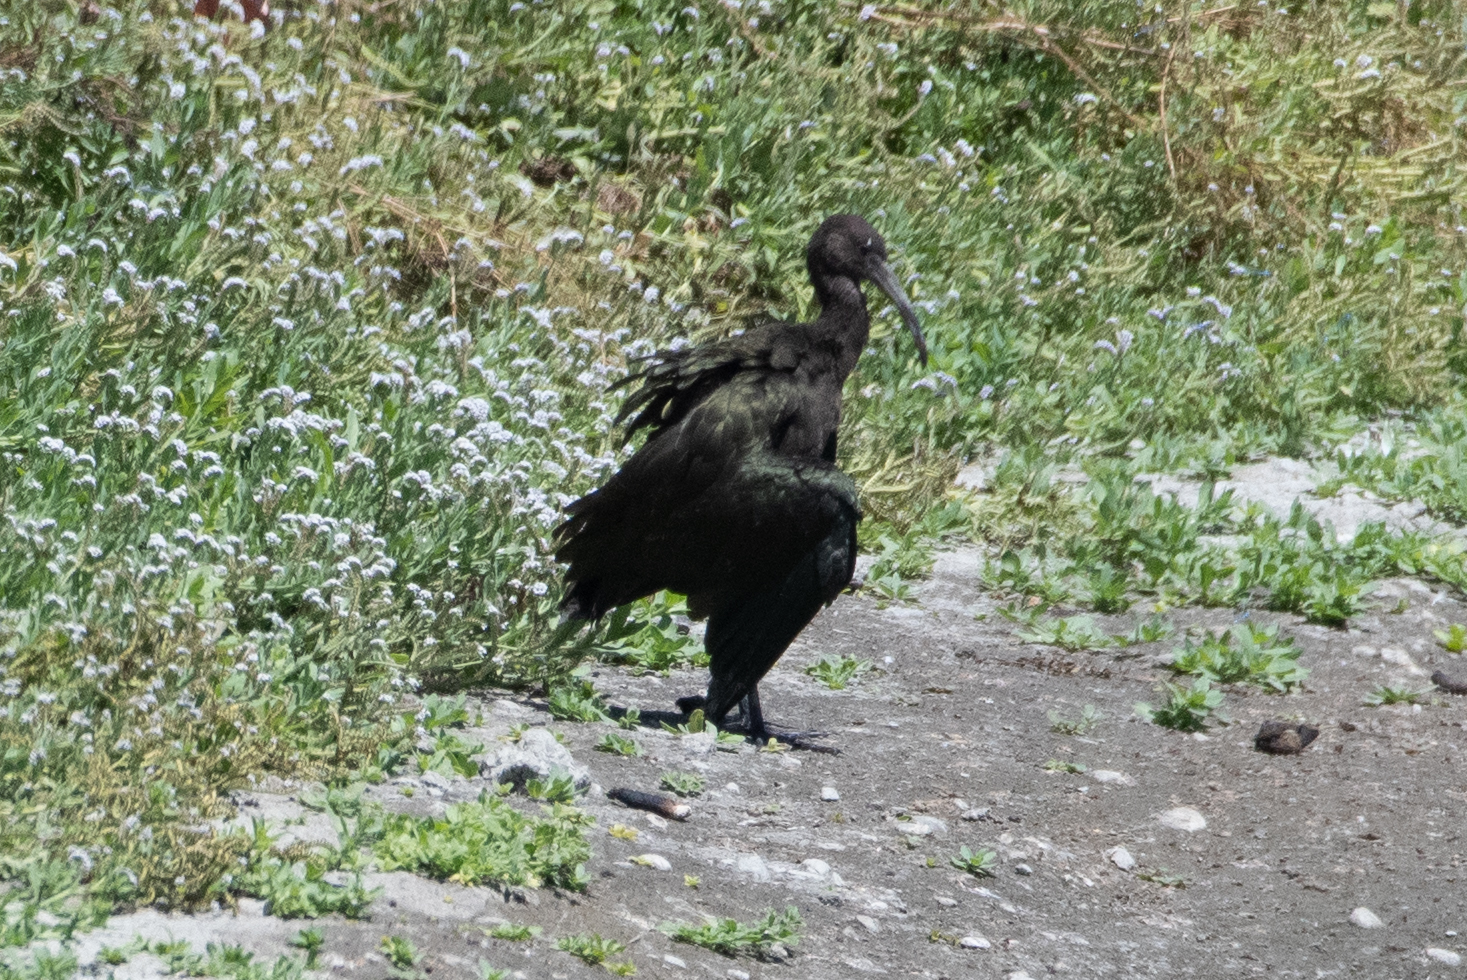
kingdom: Animalia
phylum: Chordata
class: Aves
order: Pelecaniformes
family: Threskiornithidae
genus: Plegadis
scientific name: Plegadis chihi
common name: White-faced ibis
